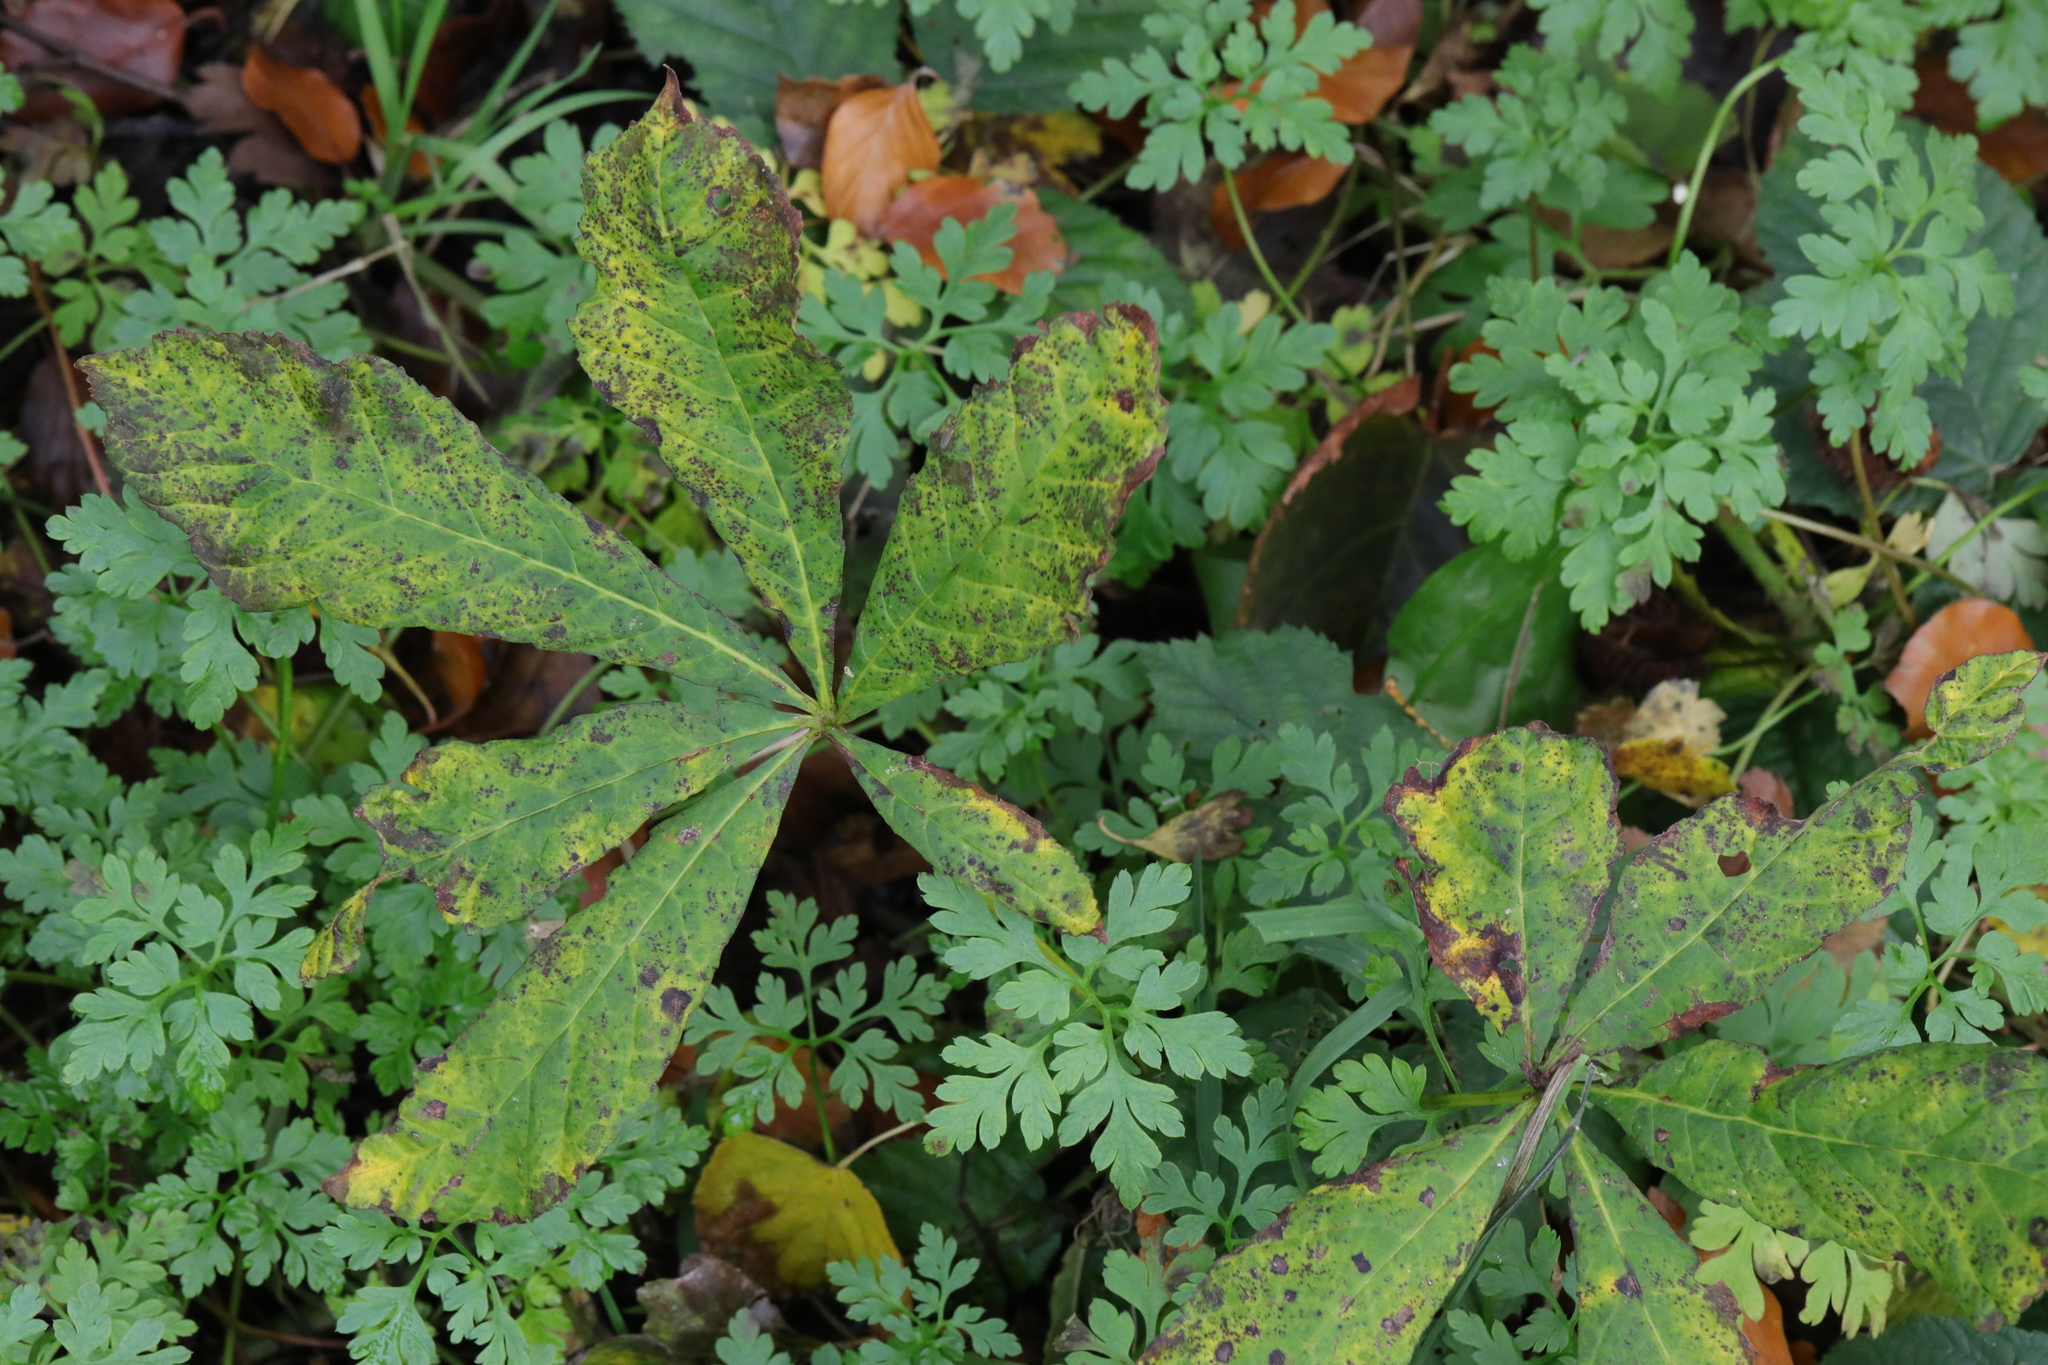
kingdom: Plantae
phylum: Tracheophyta
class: Magnoliopsida
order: Sapindales
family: Sapindaceae
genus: Aesculus
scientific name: Aesculus hippocastanum
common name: Horse-chestnut
